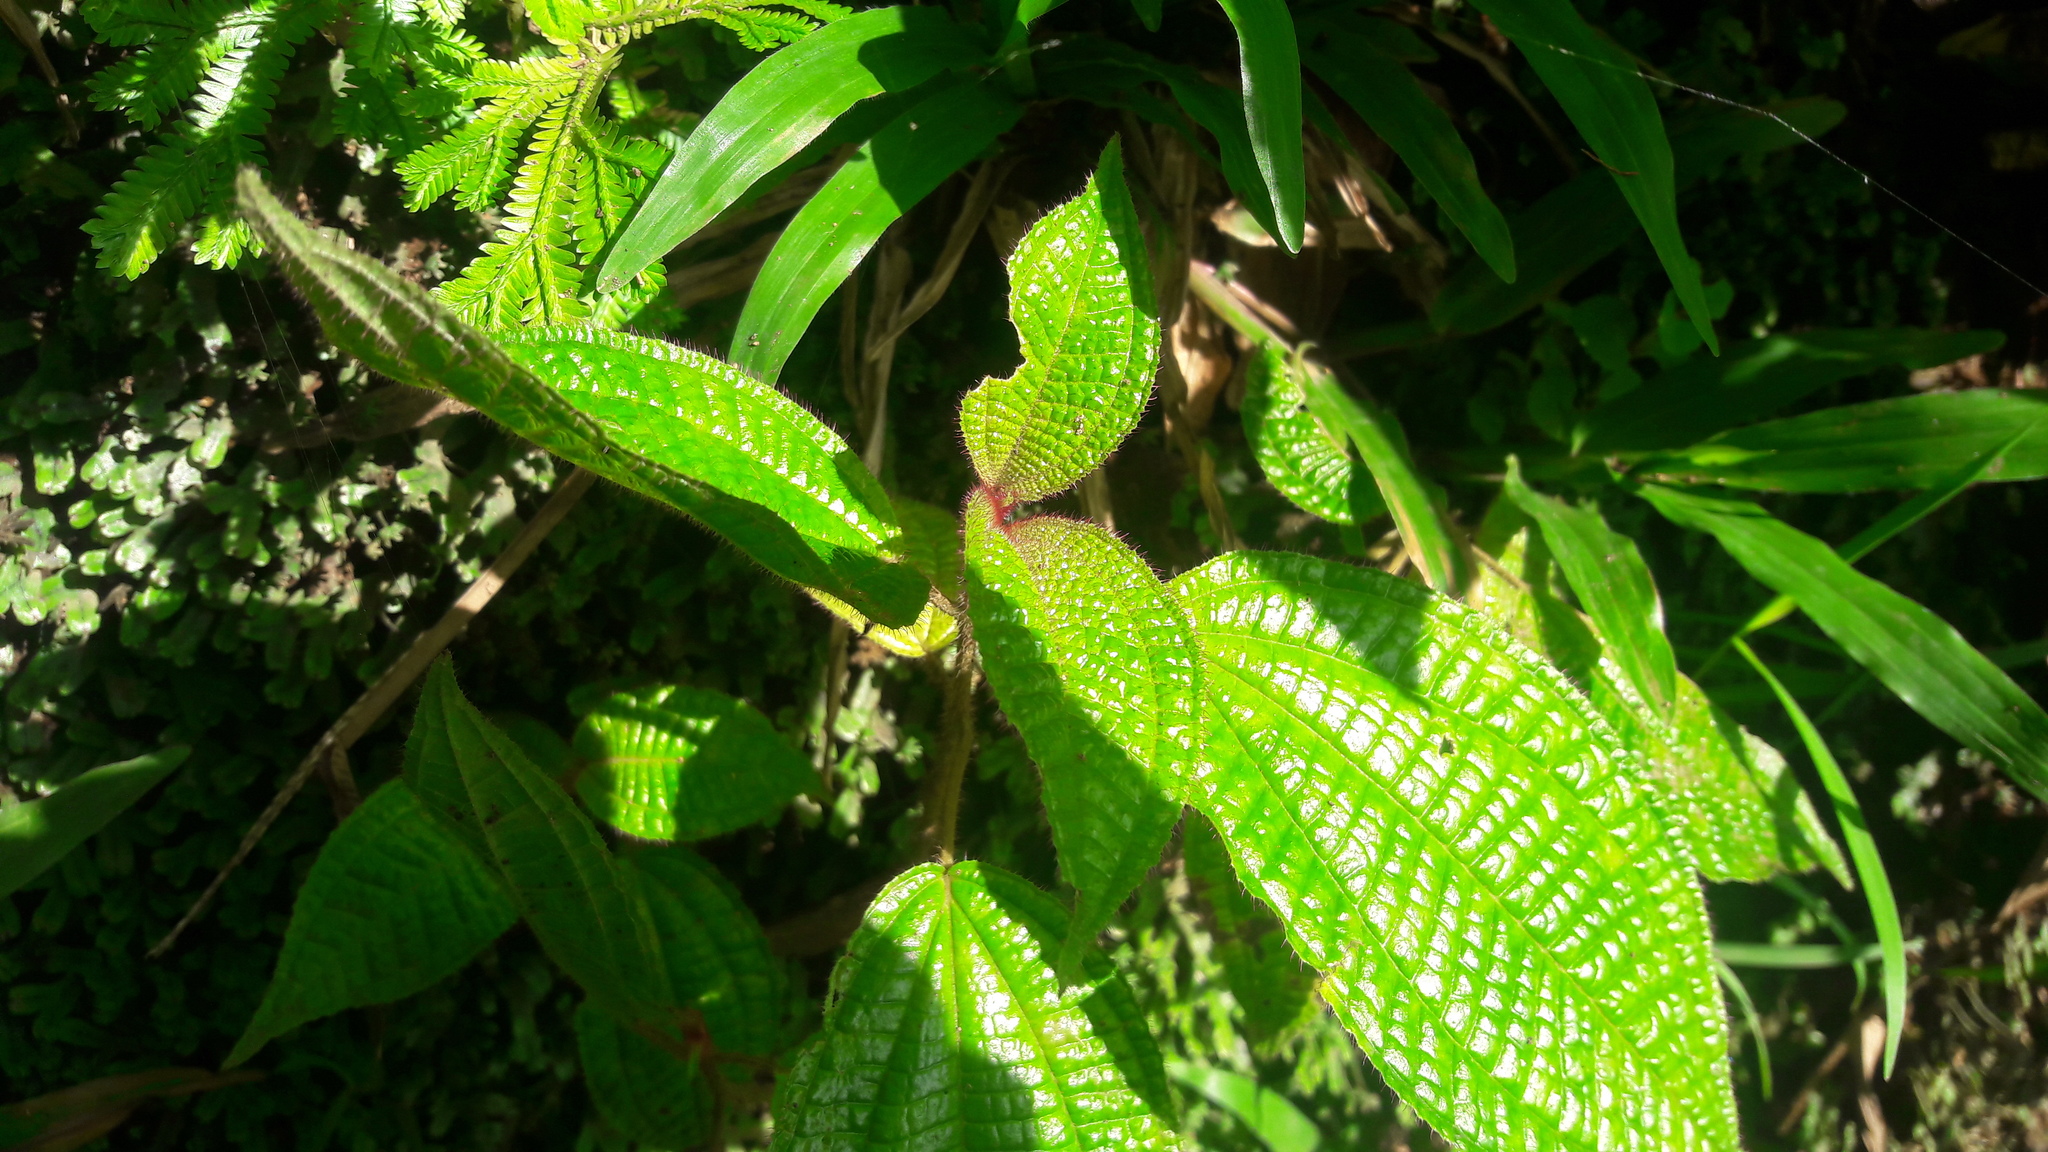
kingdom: Plantae
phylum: Tracheophyta
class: Magnoliopsida
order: Myrtales
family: Melastomataceae
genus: Miconia
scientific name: Miconia crenata
